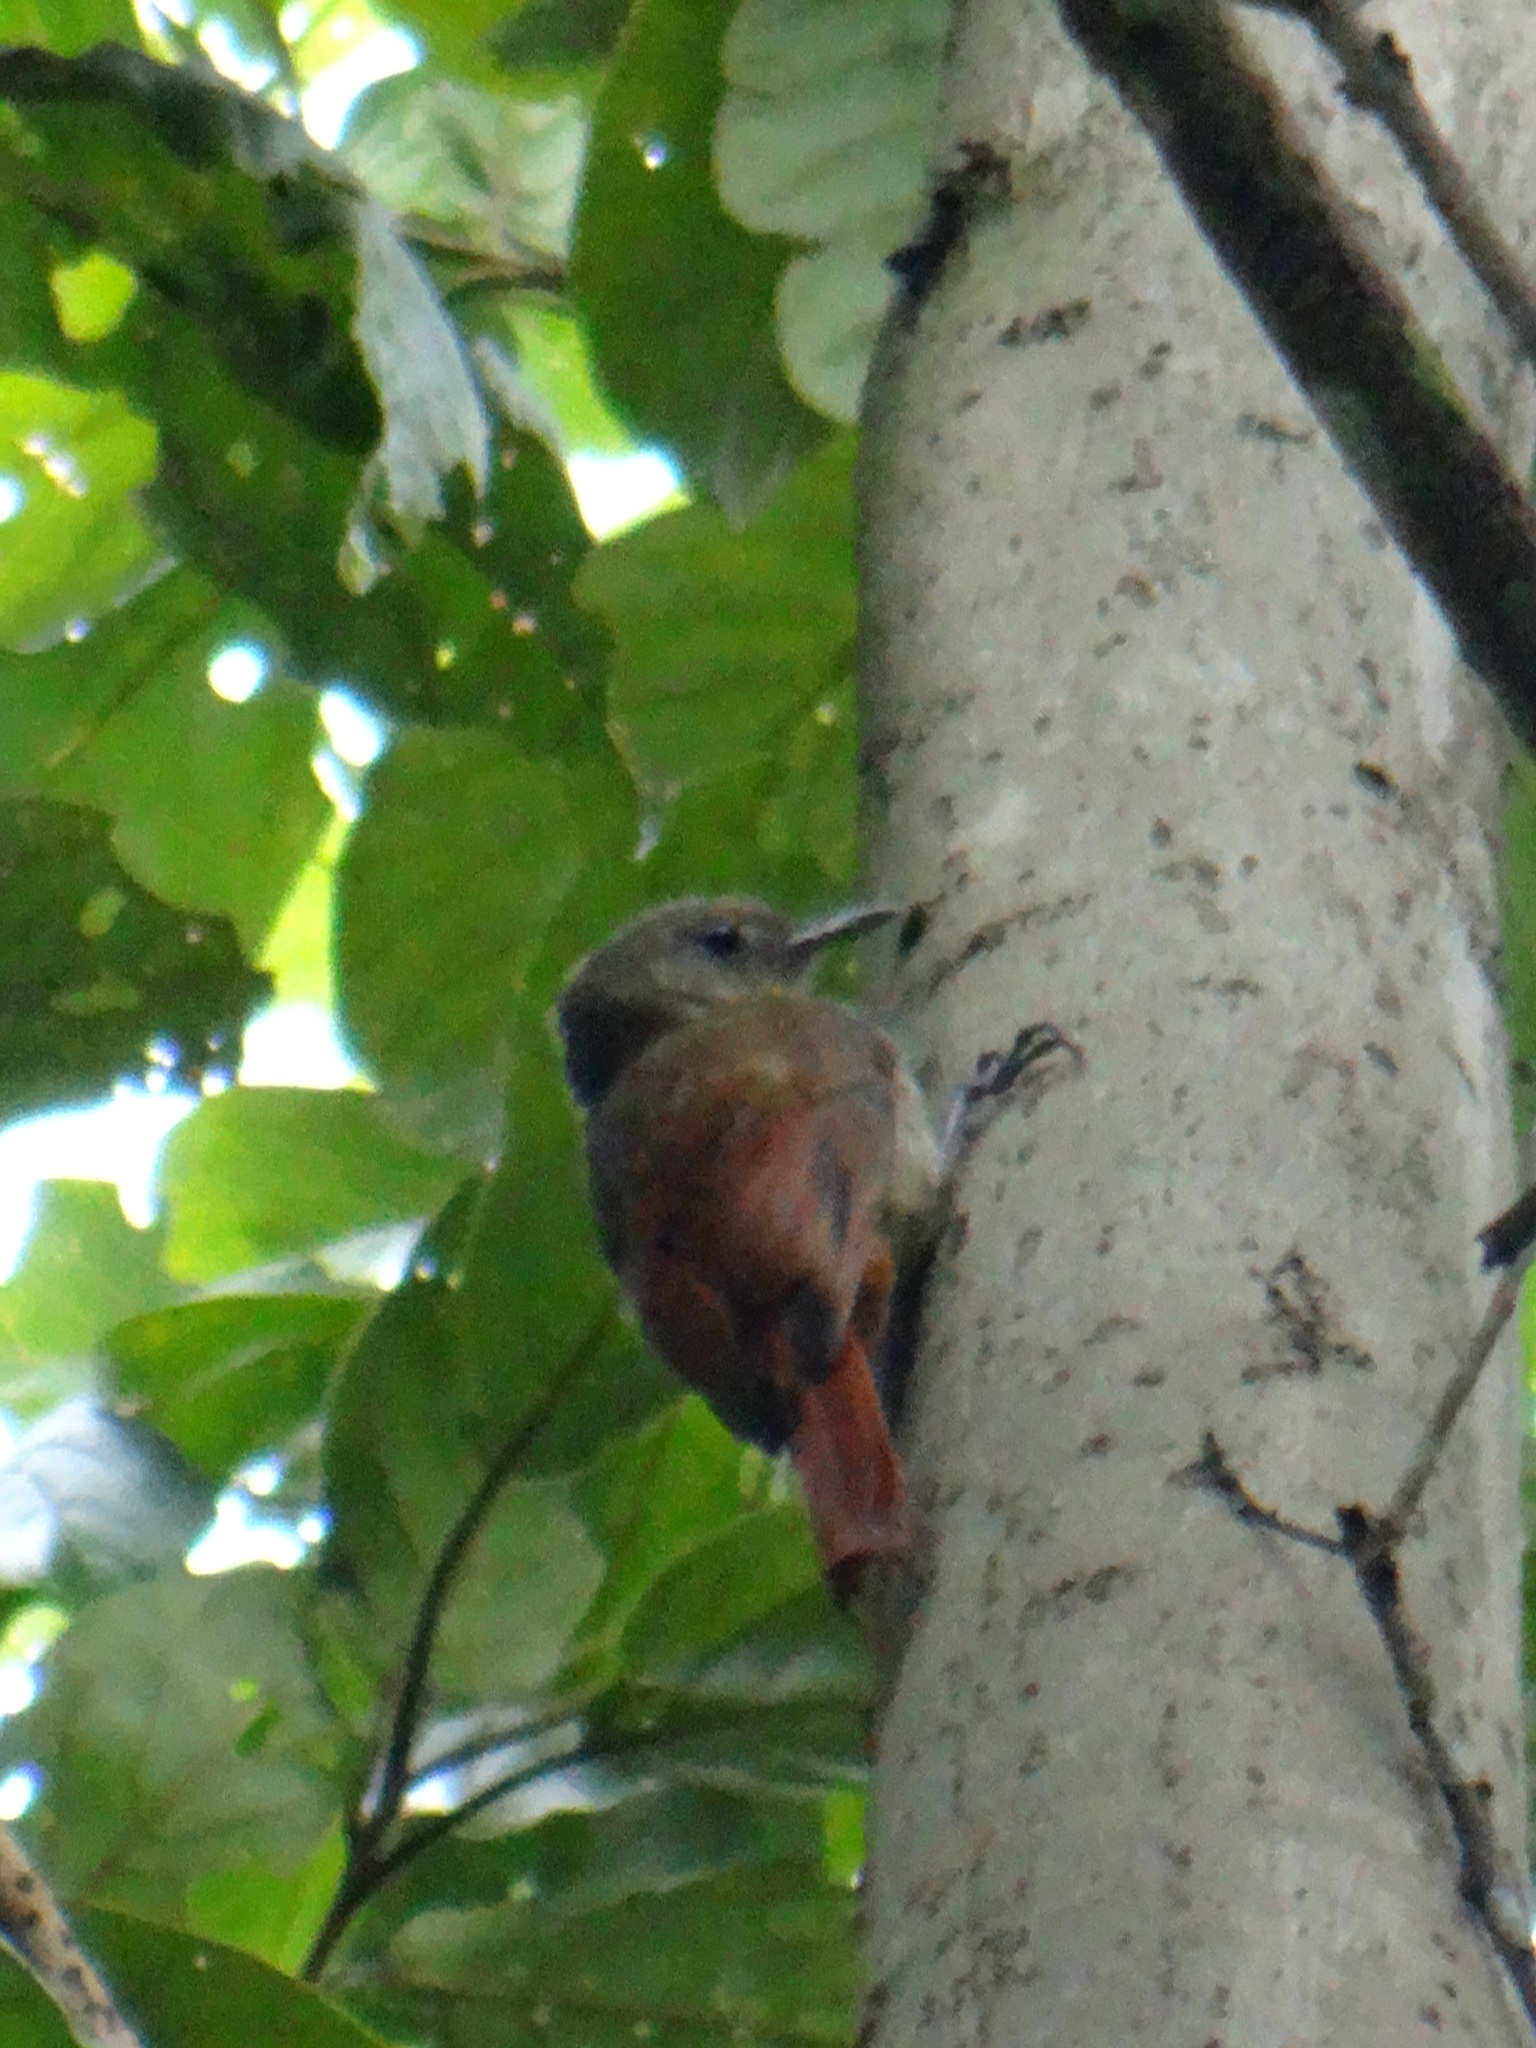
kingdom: Animalia
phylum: Chordata
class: Aves
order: Passeriformes
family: Furnariidae
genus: Sittasomus
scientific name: Sittasomus griseicapillus
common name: Olivaceous woodcreeper
